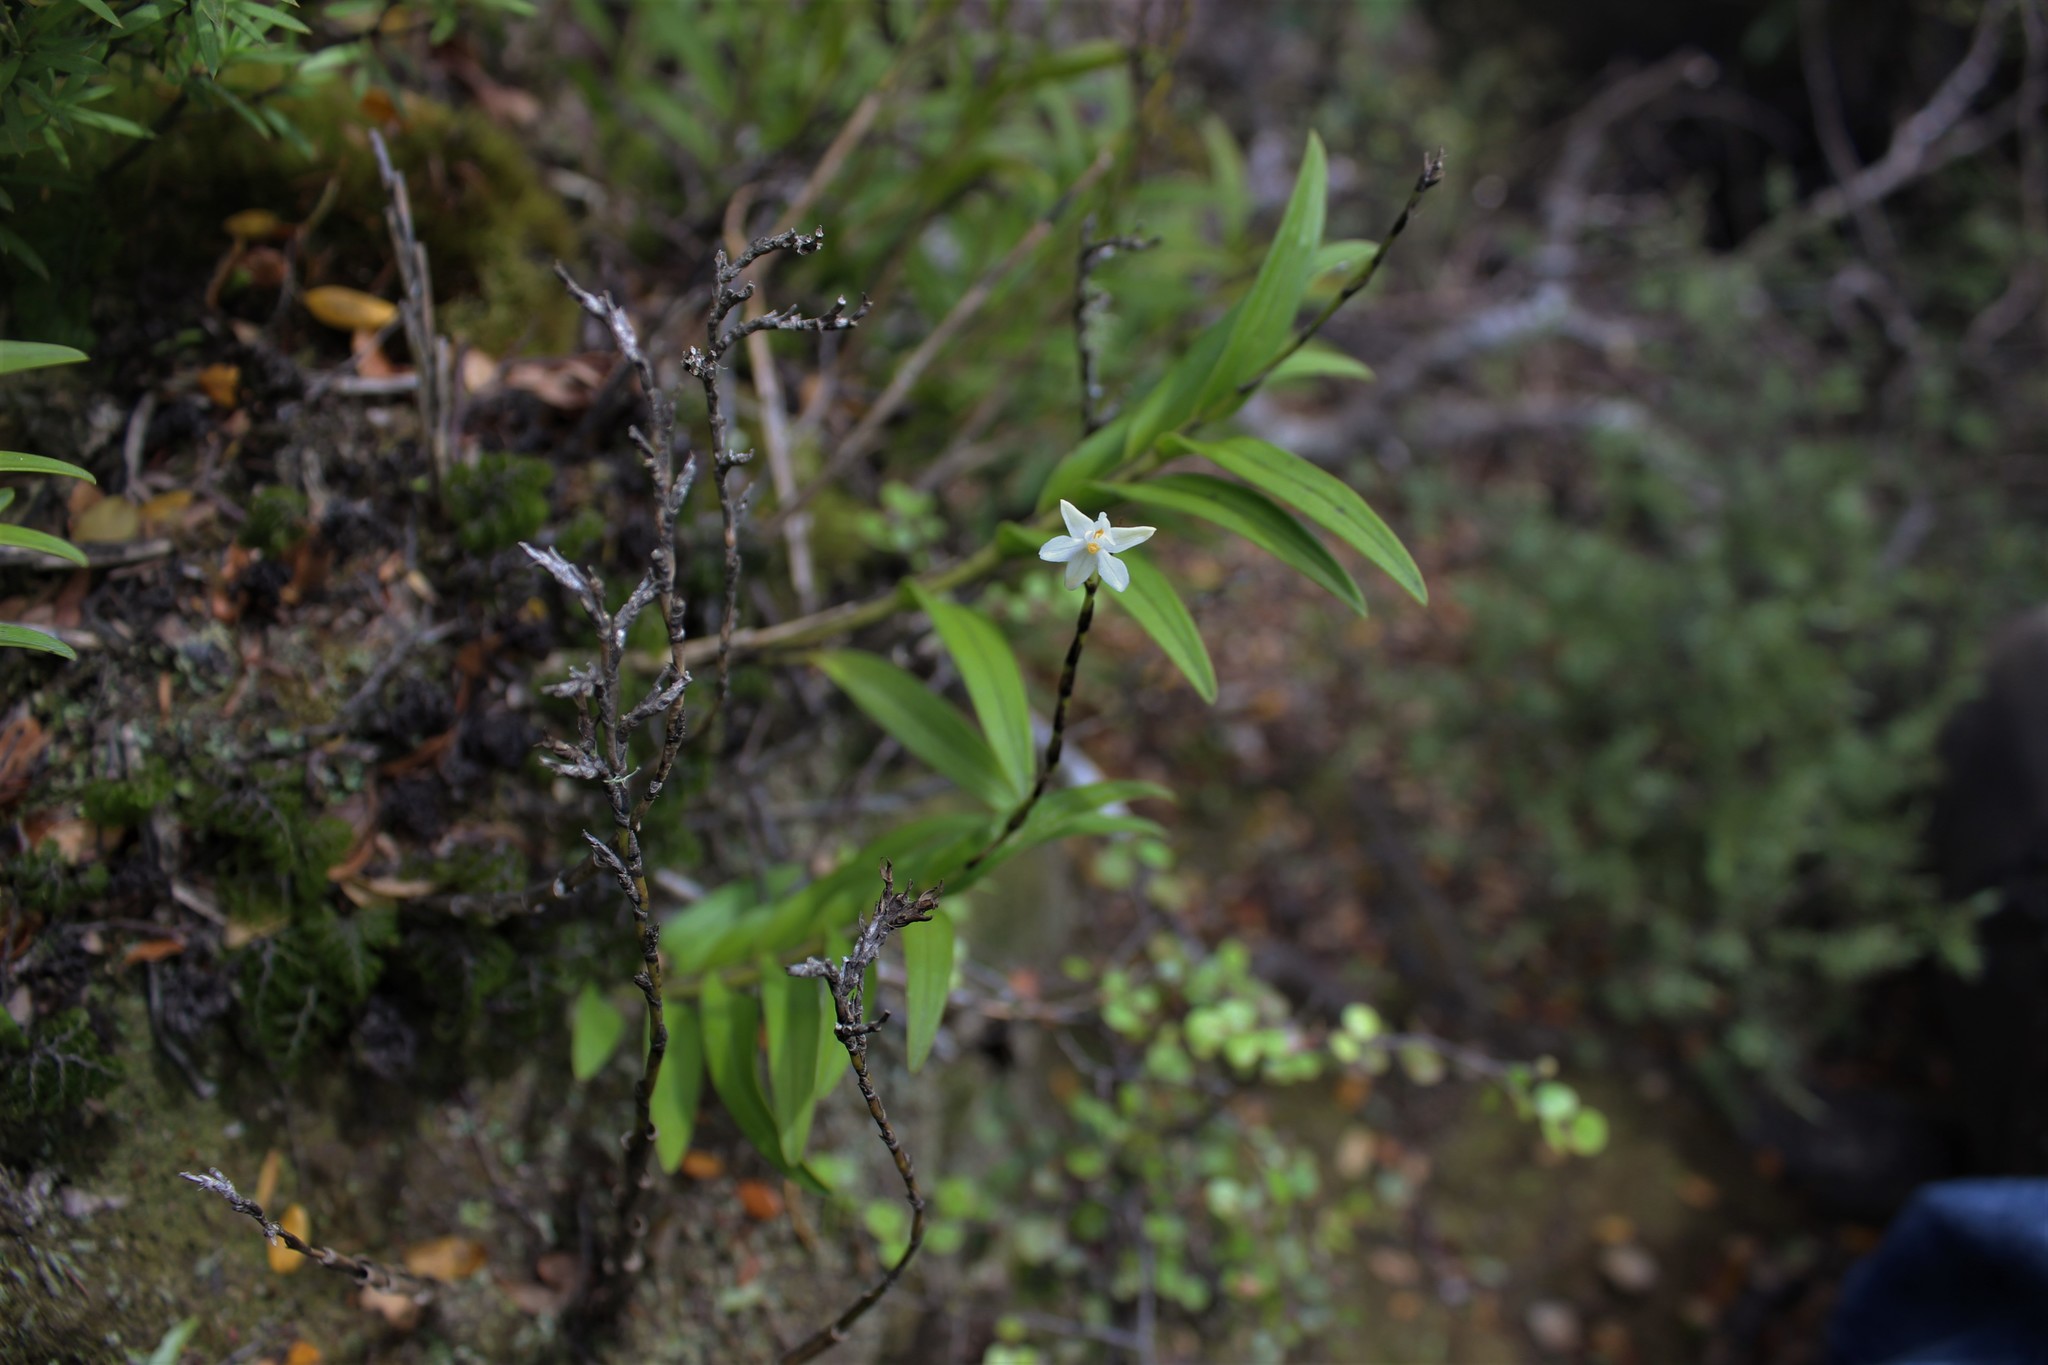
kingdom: Plantae
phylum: Tracheophyta
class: Liliopsida
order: Asparagales
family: Orchidaceae
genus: Earina
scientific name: Earina autumnalis
